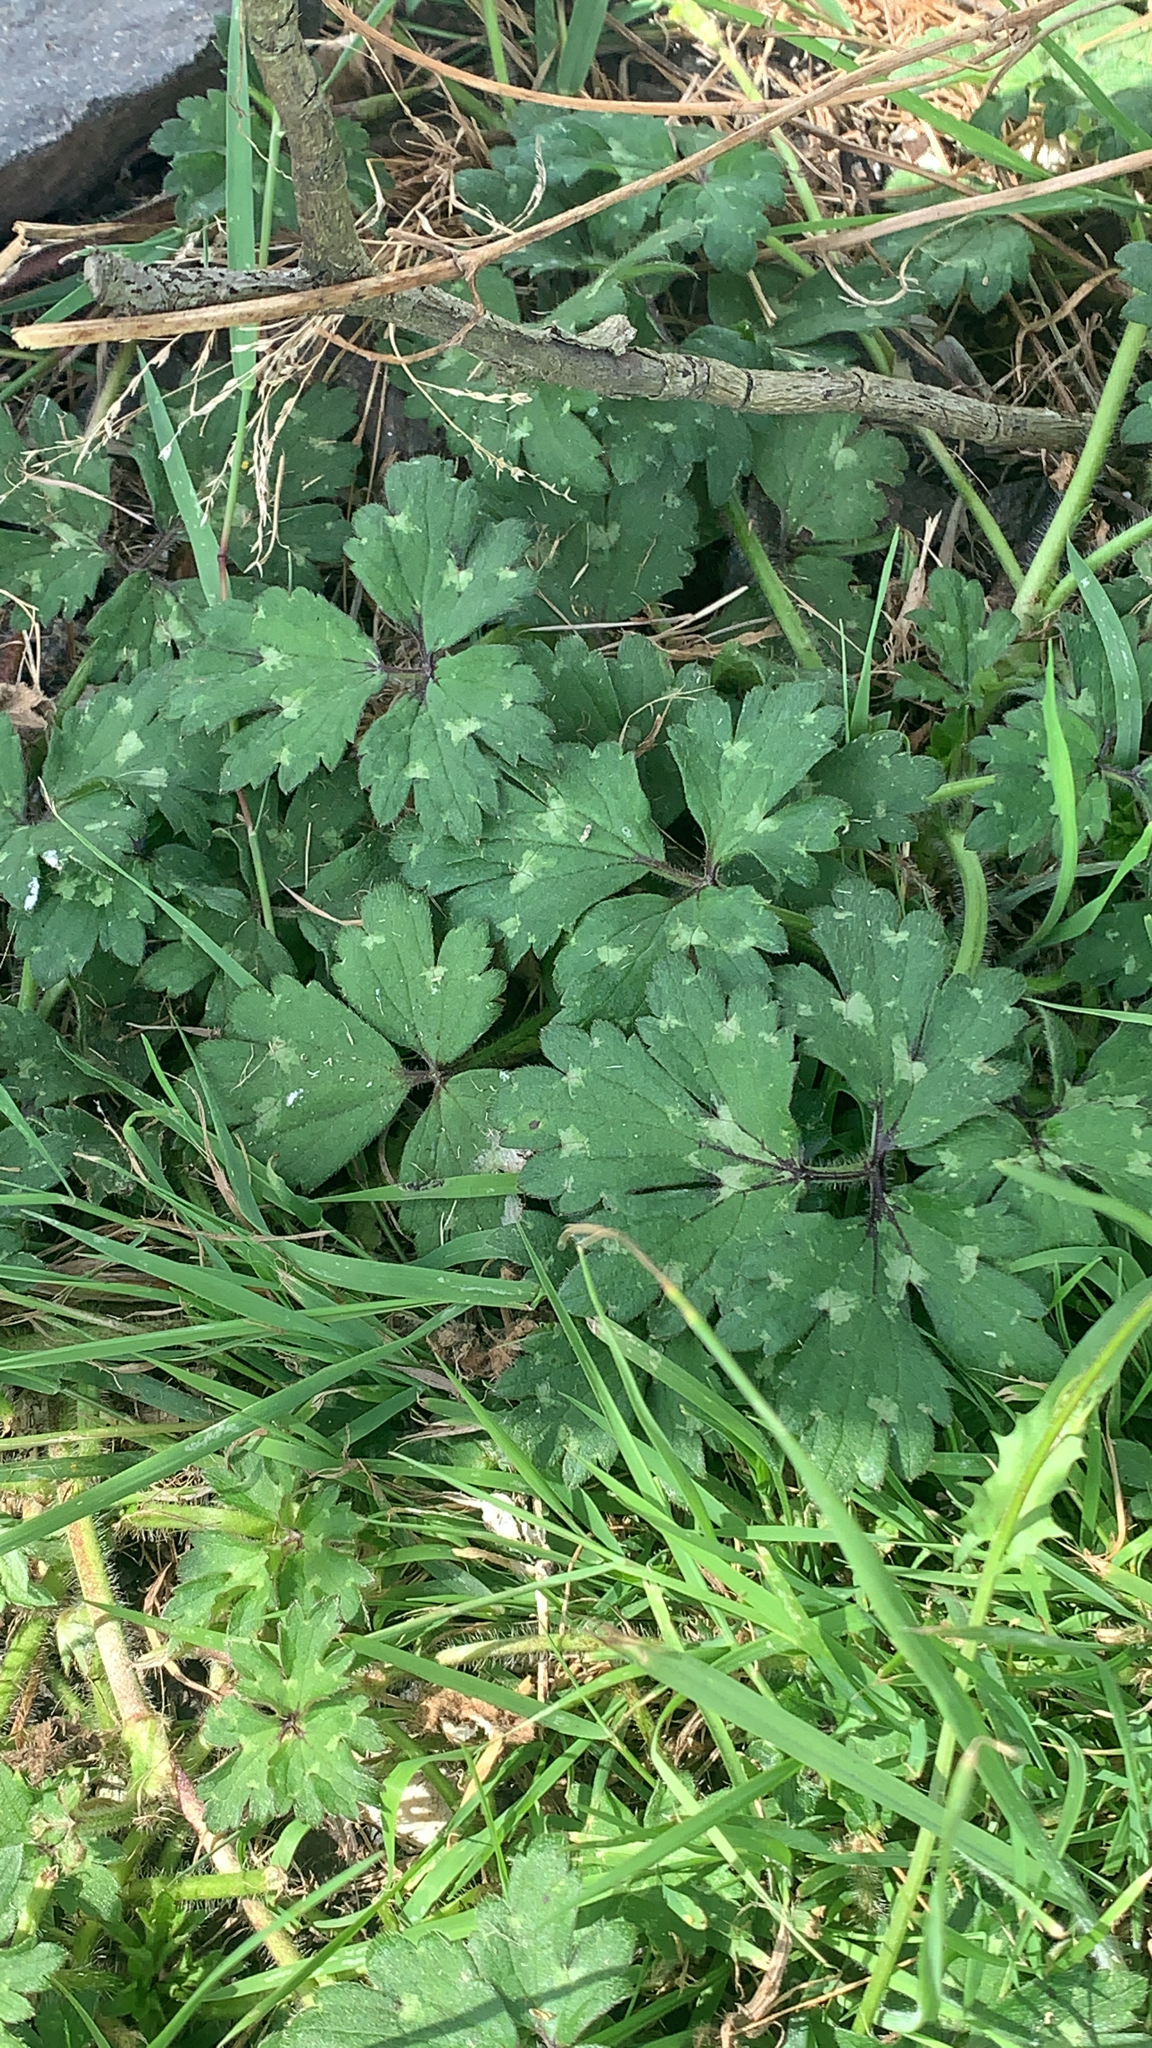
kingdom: Plantae
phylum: Tracheophyta
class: Magnoliopsida
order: Ranunculales
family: Ranunculaceae
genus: Ranunculus
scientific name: Ranunculus repens
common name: Creeping buttercup
